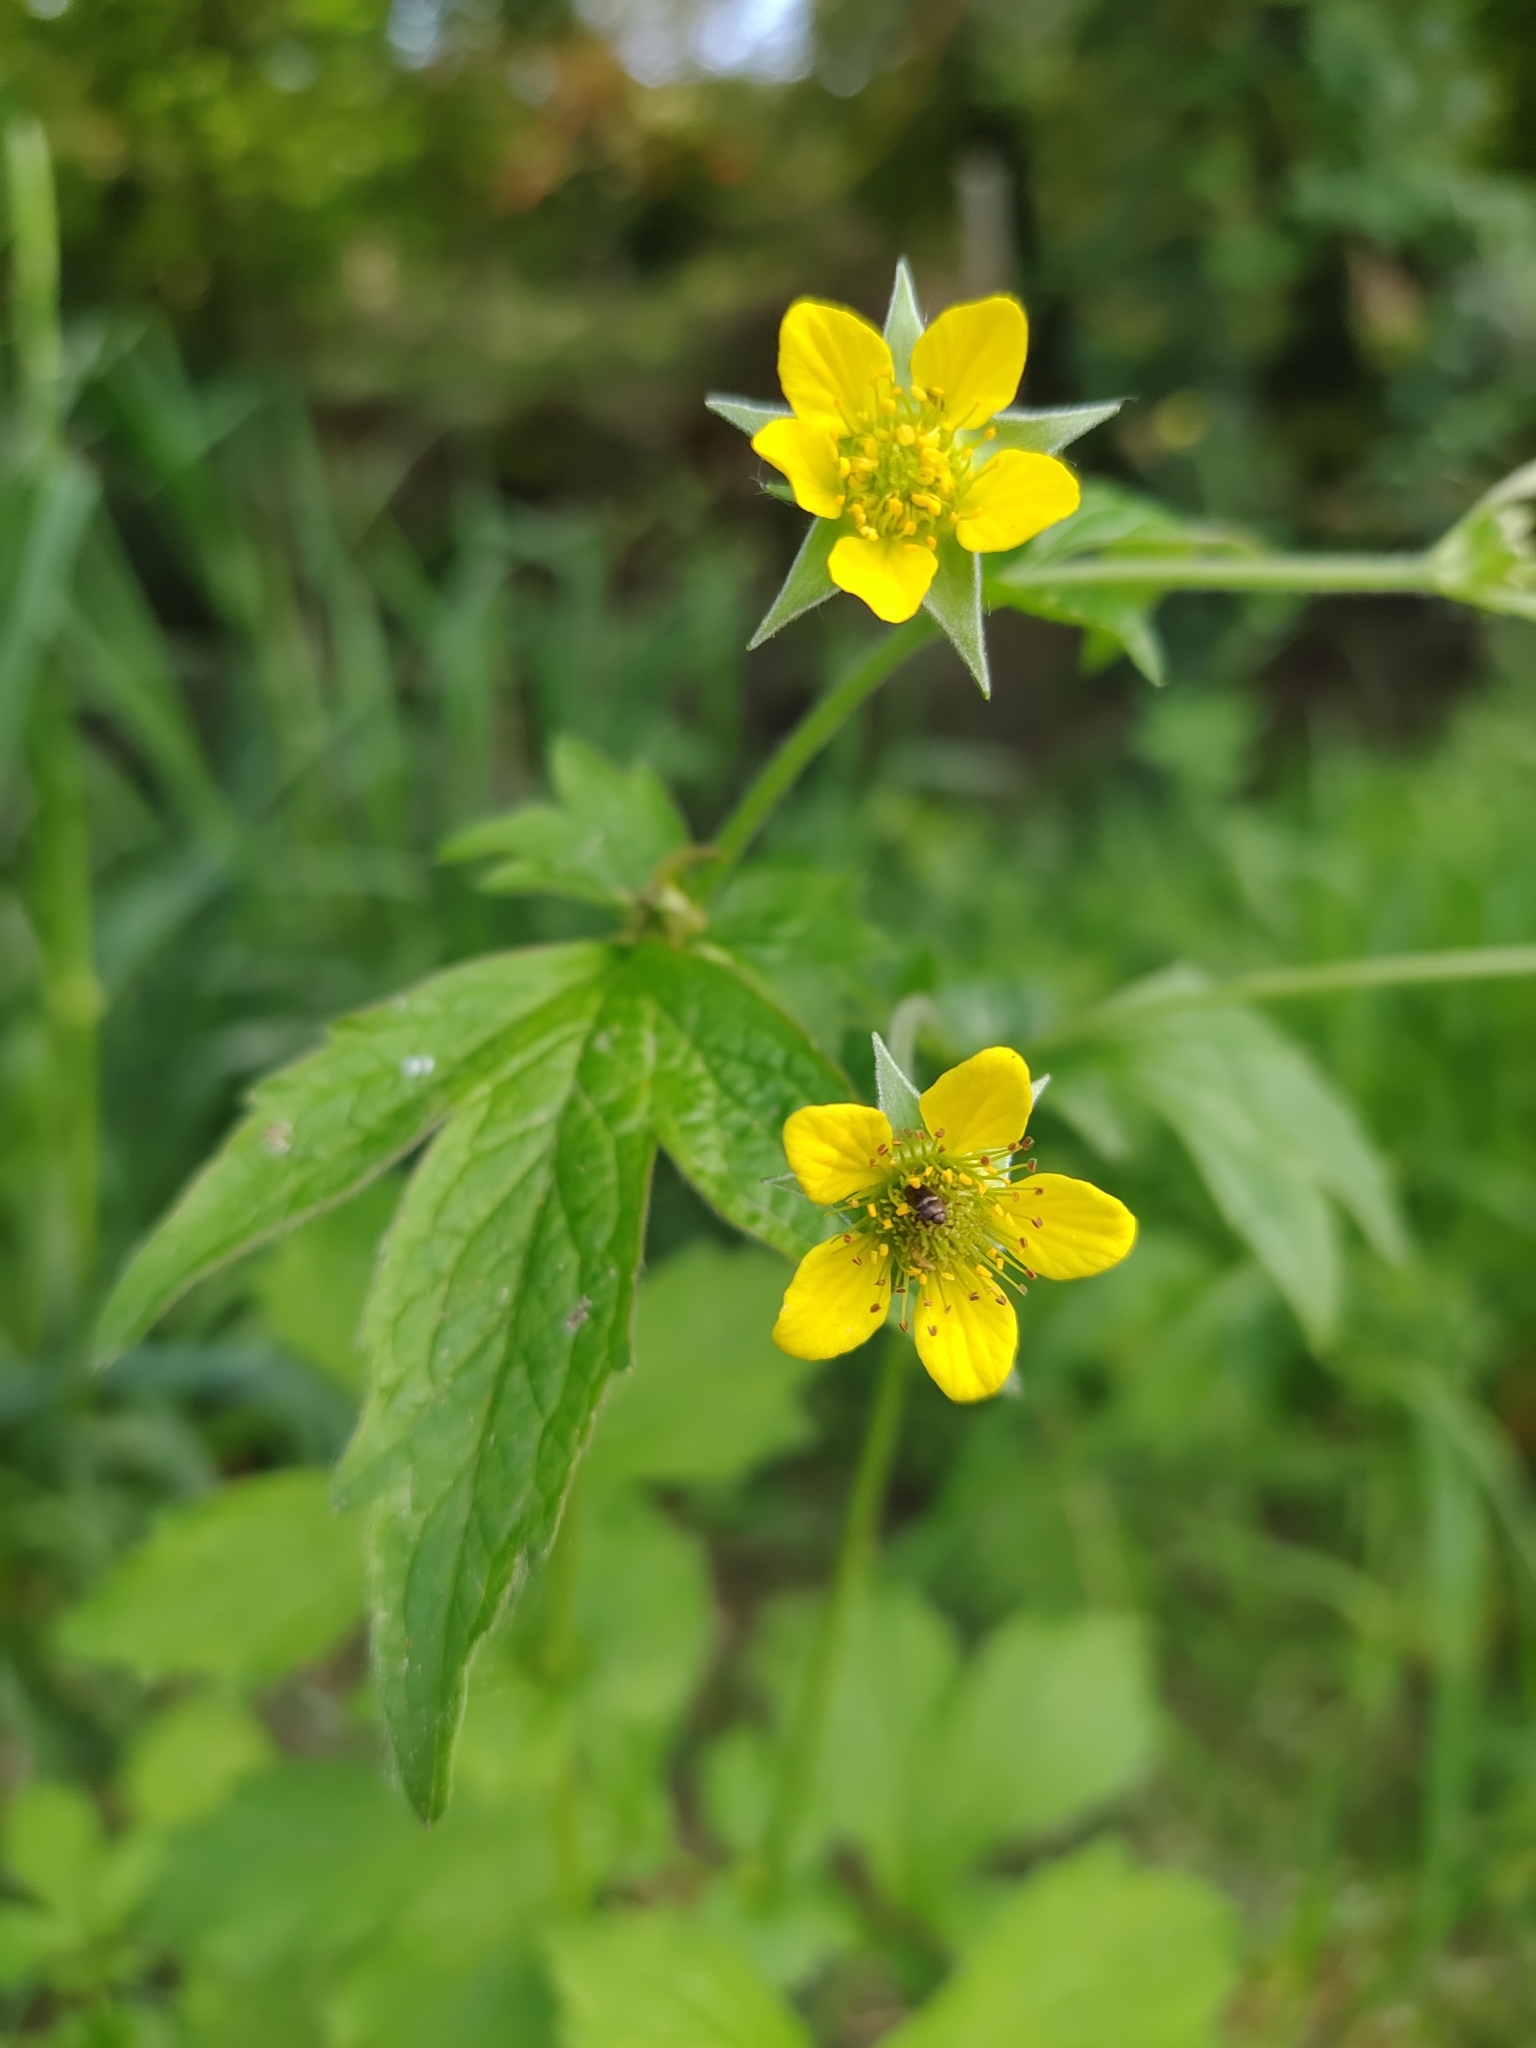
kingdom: Plantae
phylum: Tracheophyta
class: Magnoliopsida
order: Rosales
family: Rosaceae
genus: Geum
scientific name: Geum urbanum
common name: Wood avens
